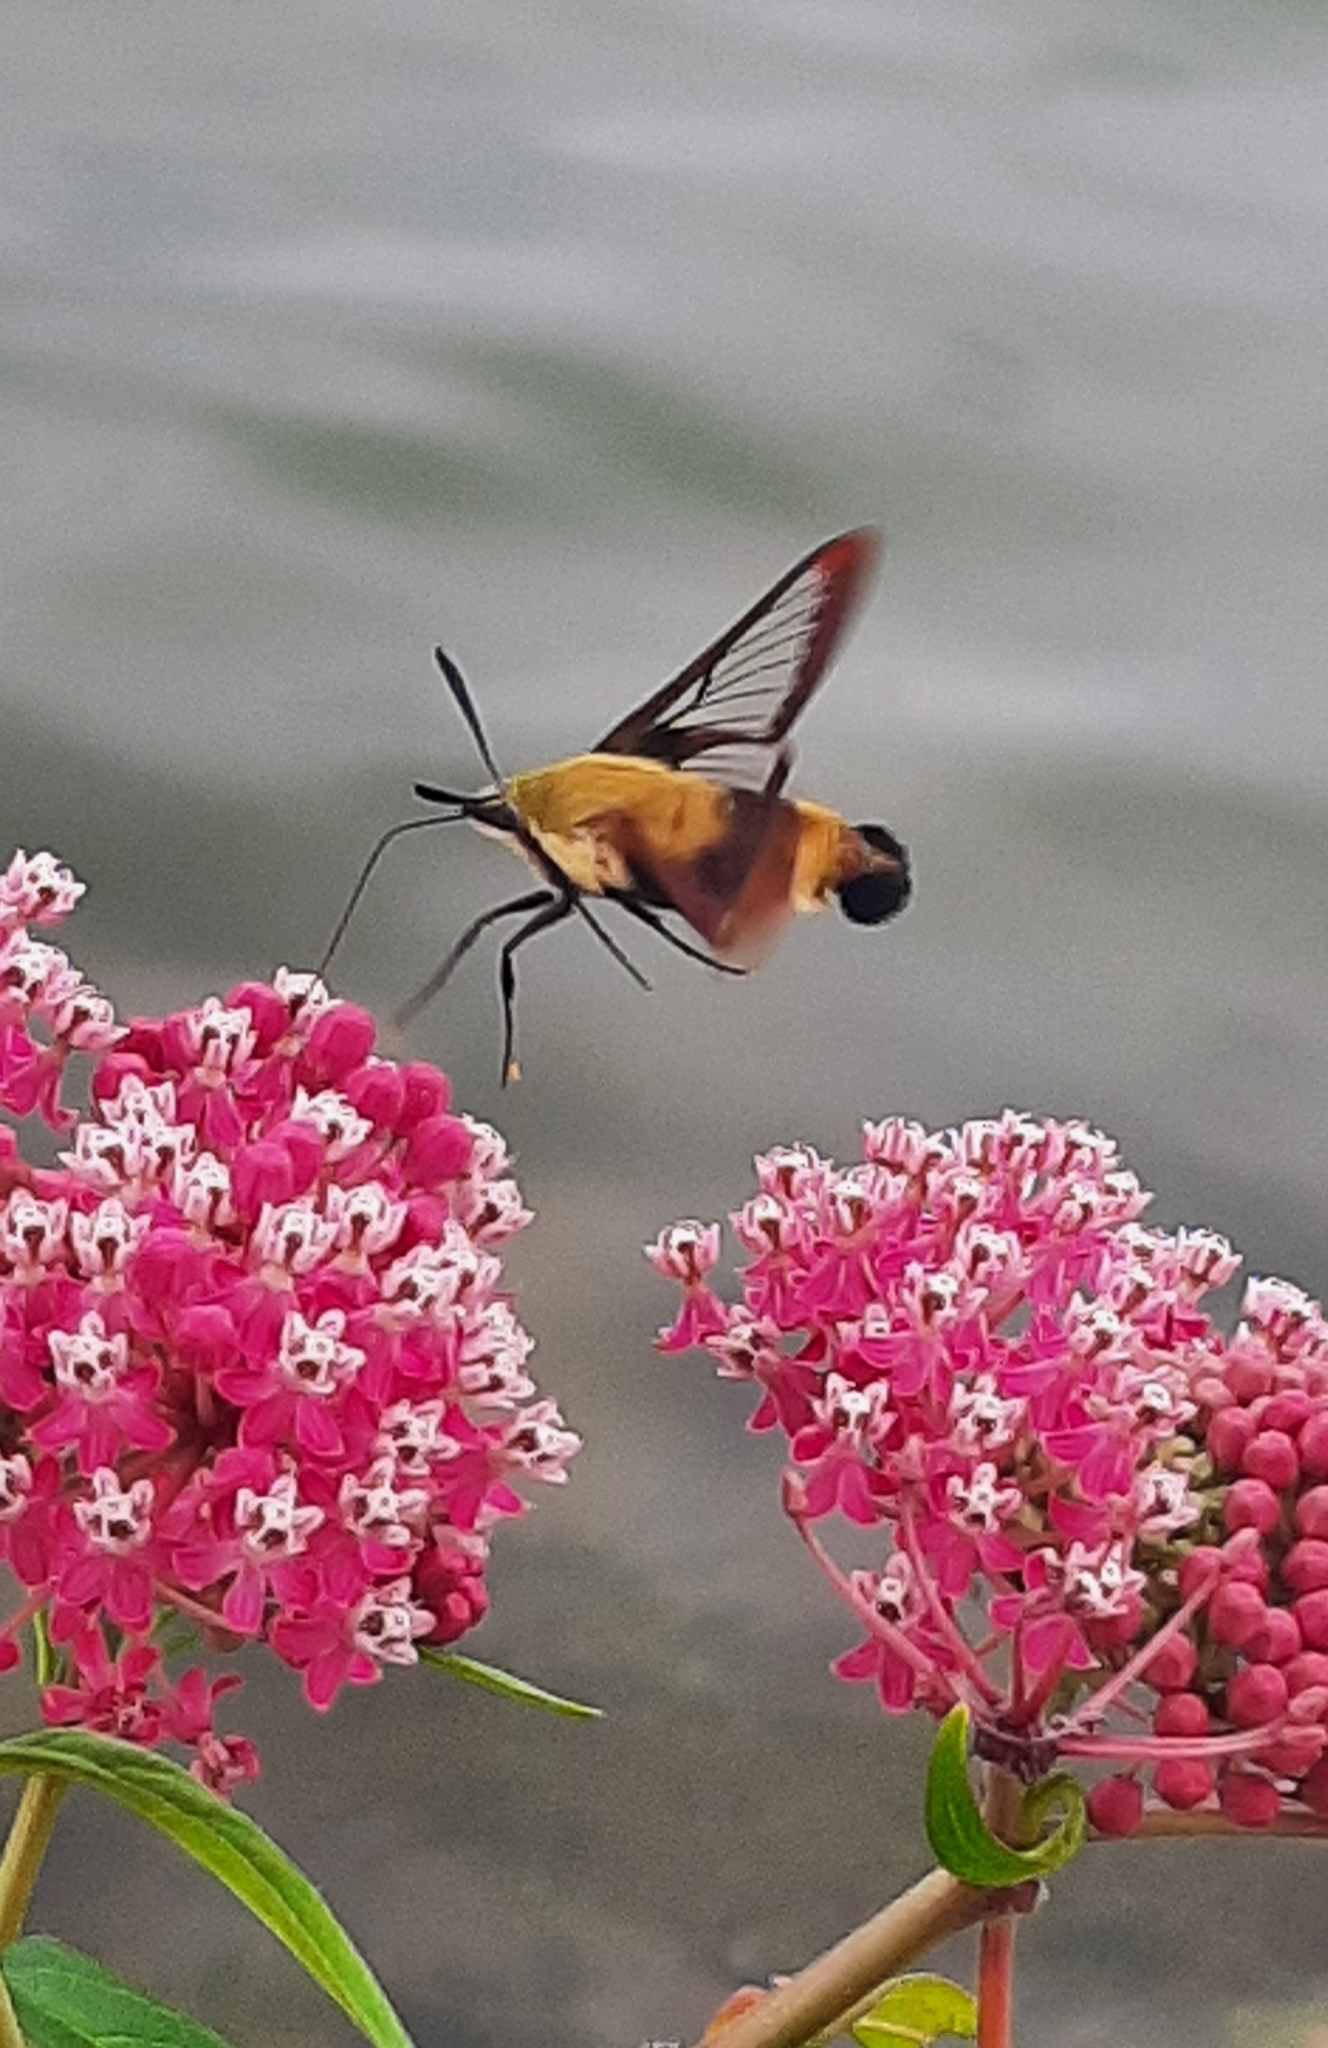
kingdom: Animalia
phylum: Arthropoda
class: Insecta
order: Lepidoptera
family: Sphingidae
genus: Hemaris
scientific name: Hemaris diffinis
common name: Bumblebee moth
